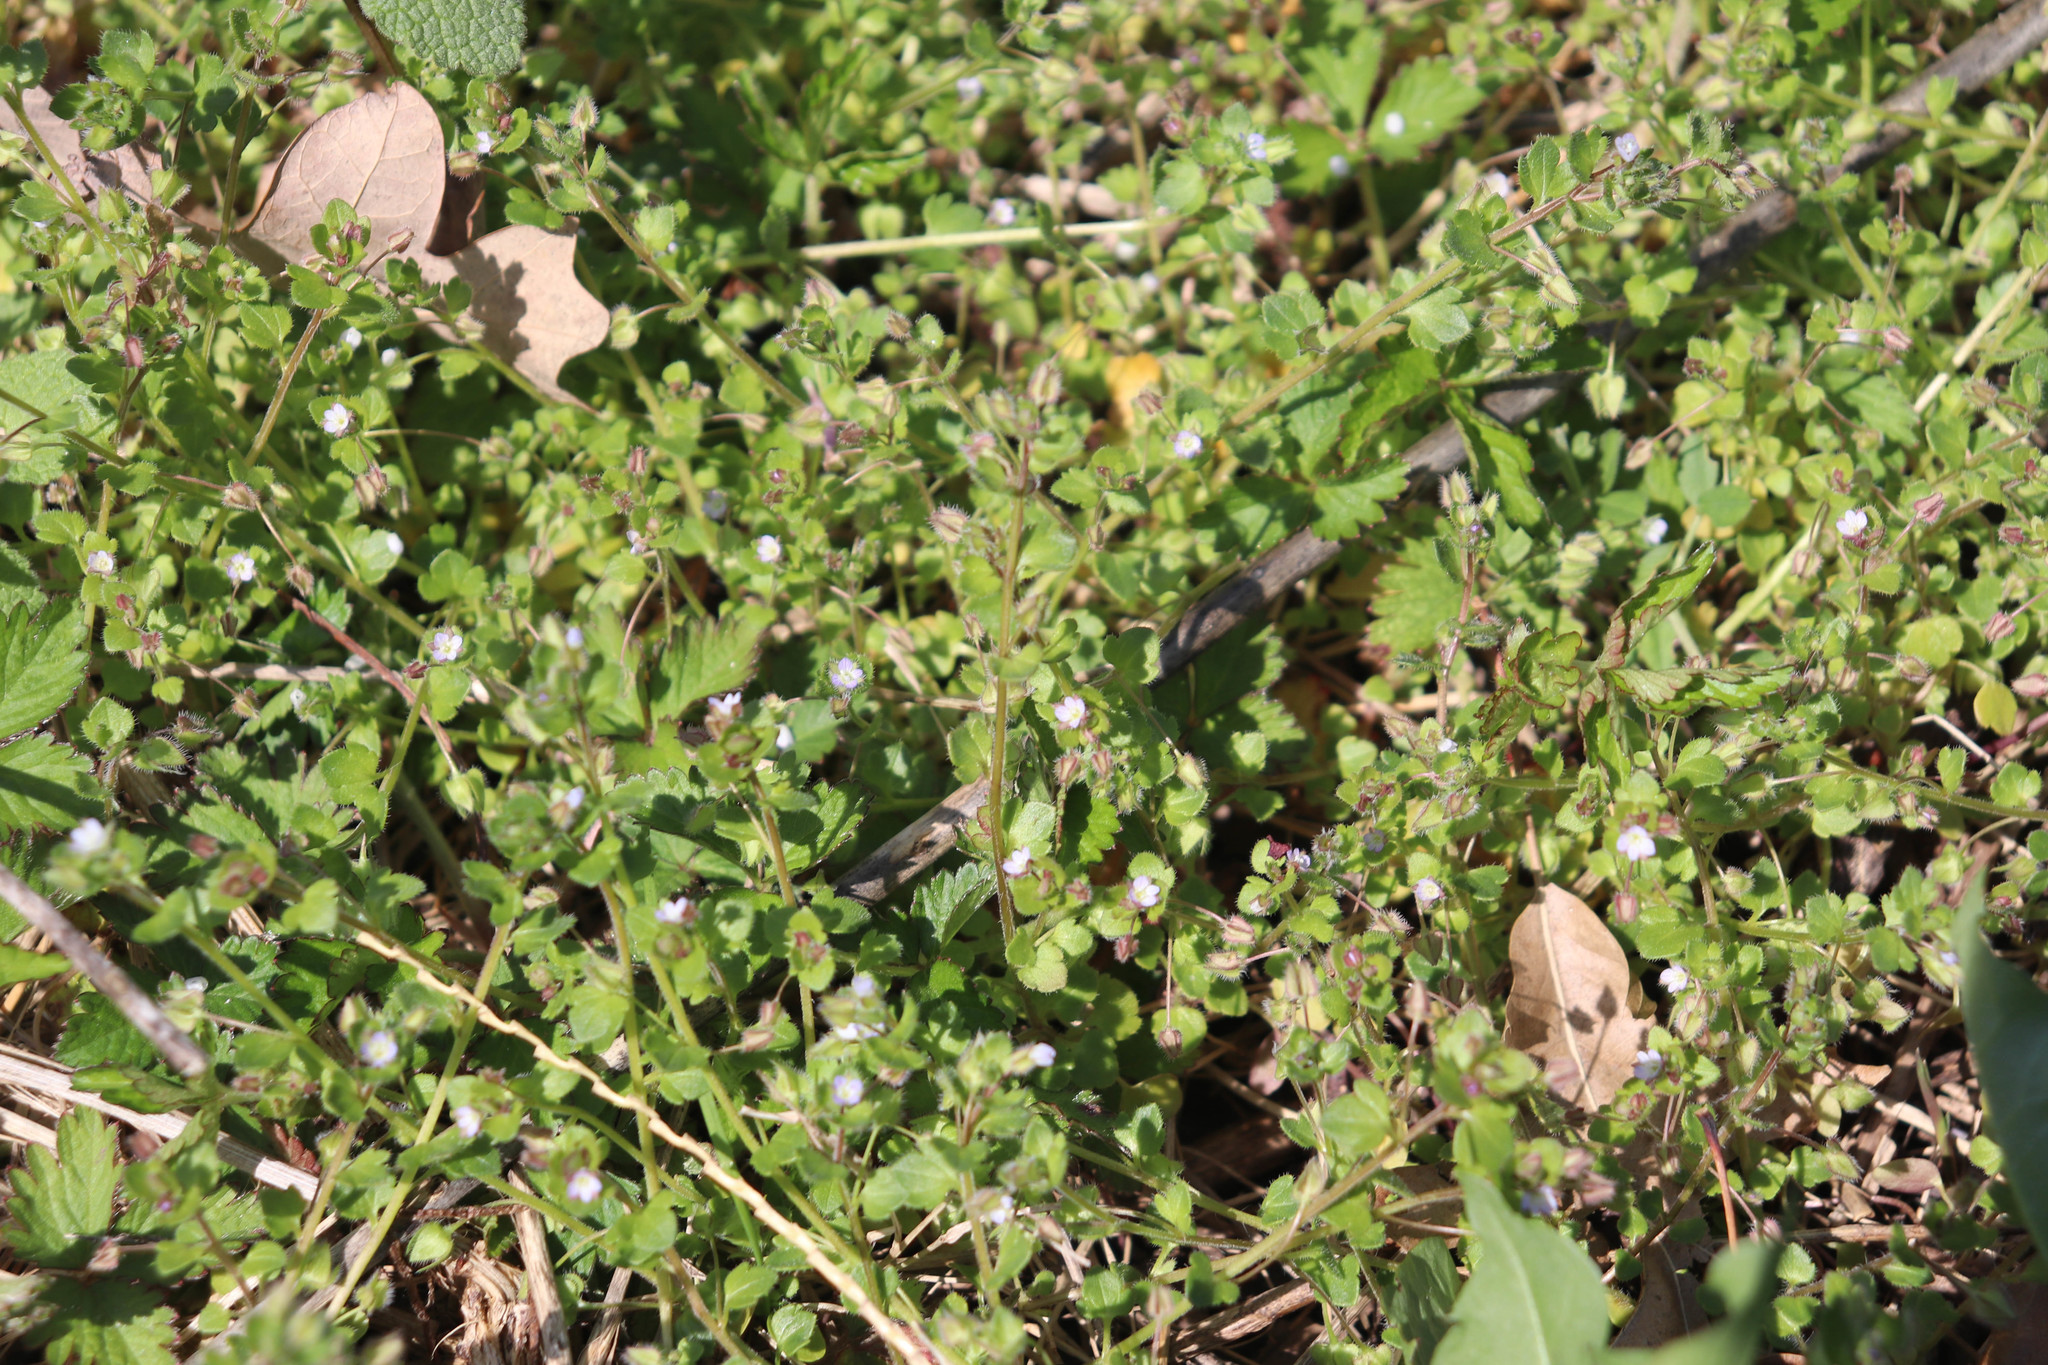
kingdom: Plantae
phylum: Tracheophyta
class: Magnoliopsida
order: Lamiales
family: Plantaginaceae
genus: Veronica
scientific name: Veronica hederifolia
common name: Ivy-leaved speedwell
